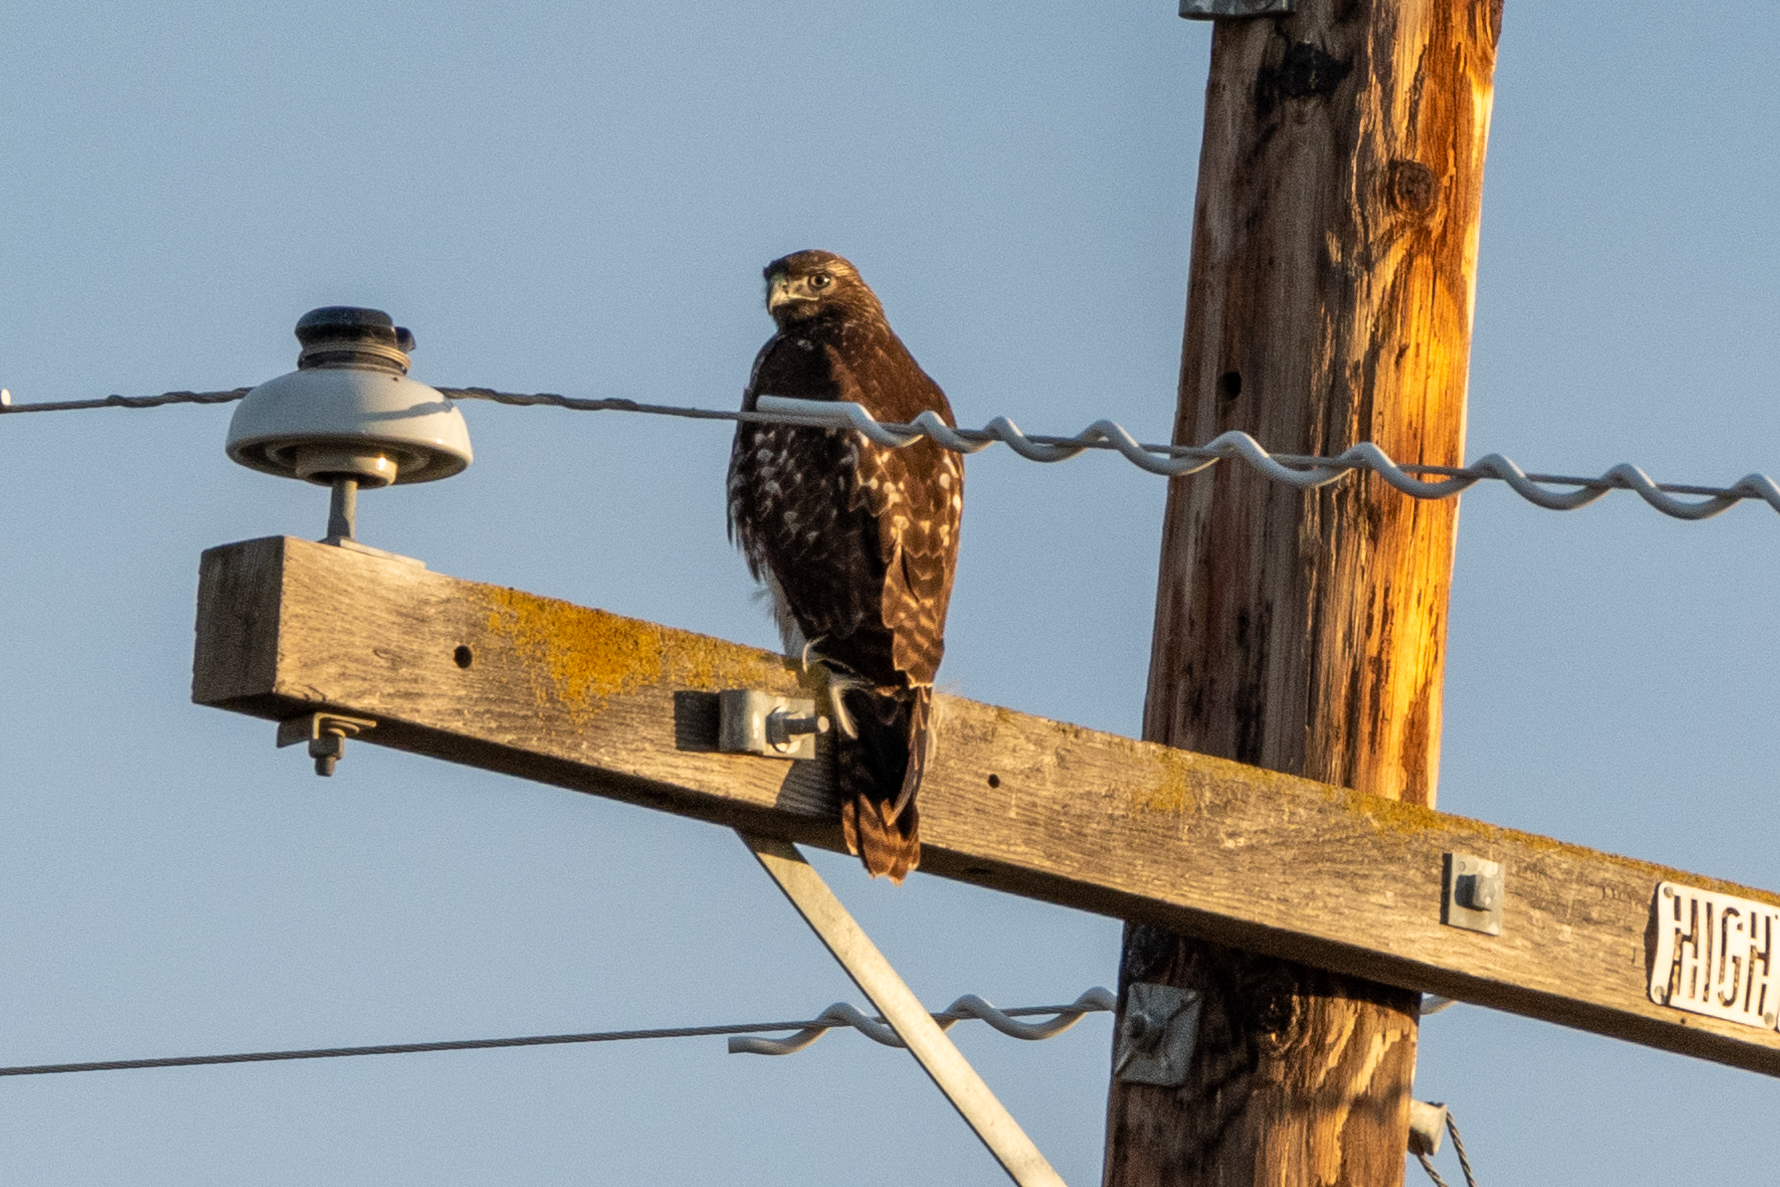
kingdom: Animalia
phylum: Chordata
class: Aves
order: Accipitriformes
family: Accipitridae
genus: Buteo
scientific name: Buteo jamaicensis
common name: Red-tailed hawk
